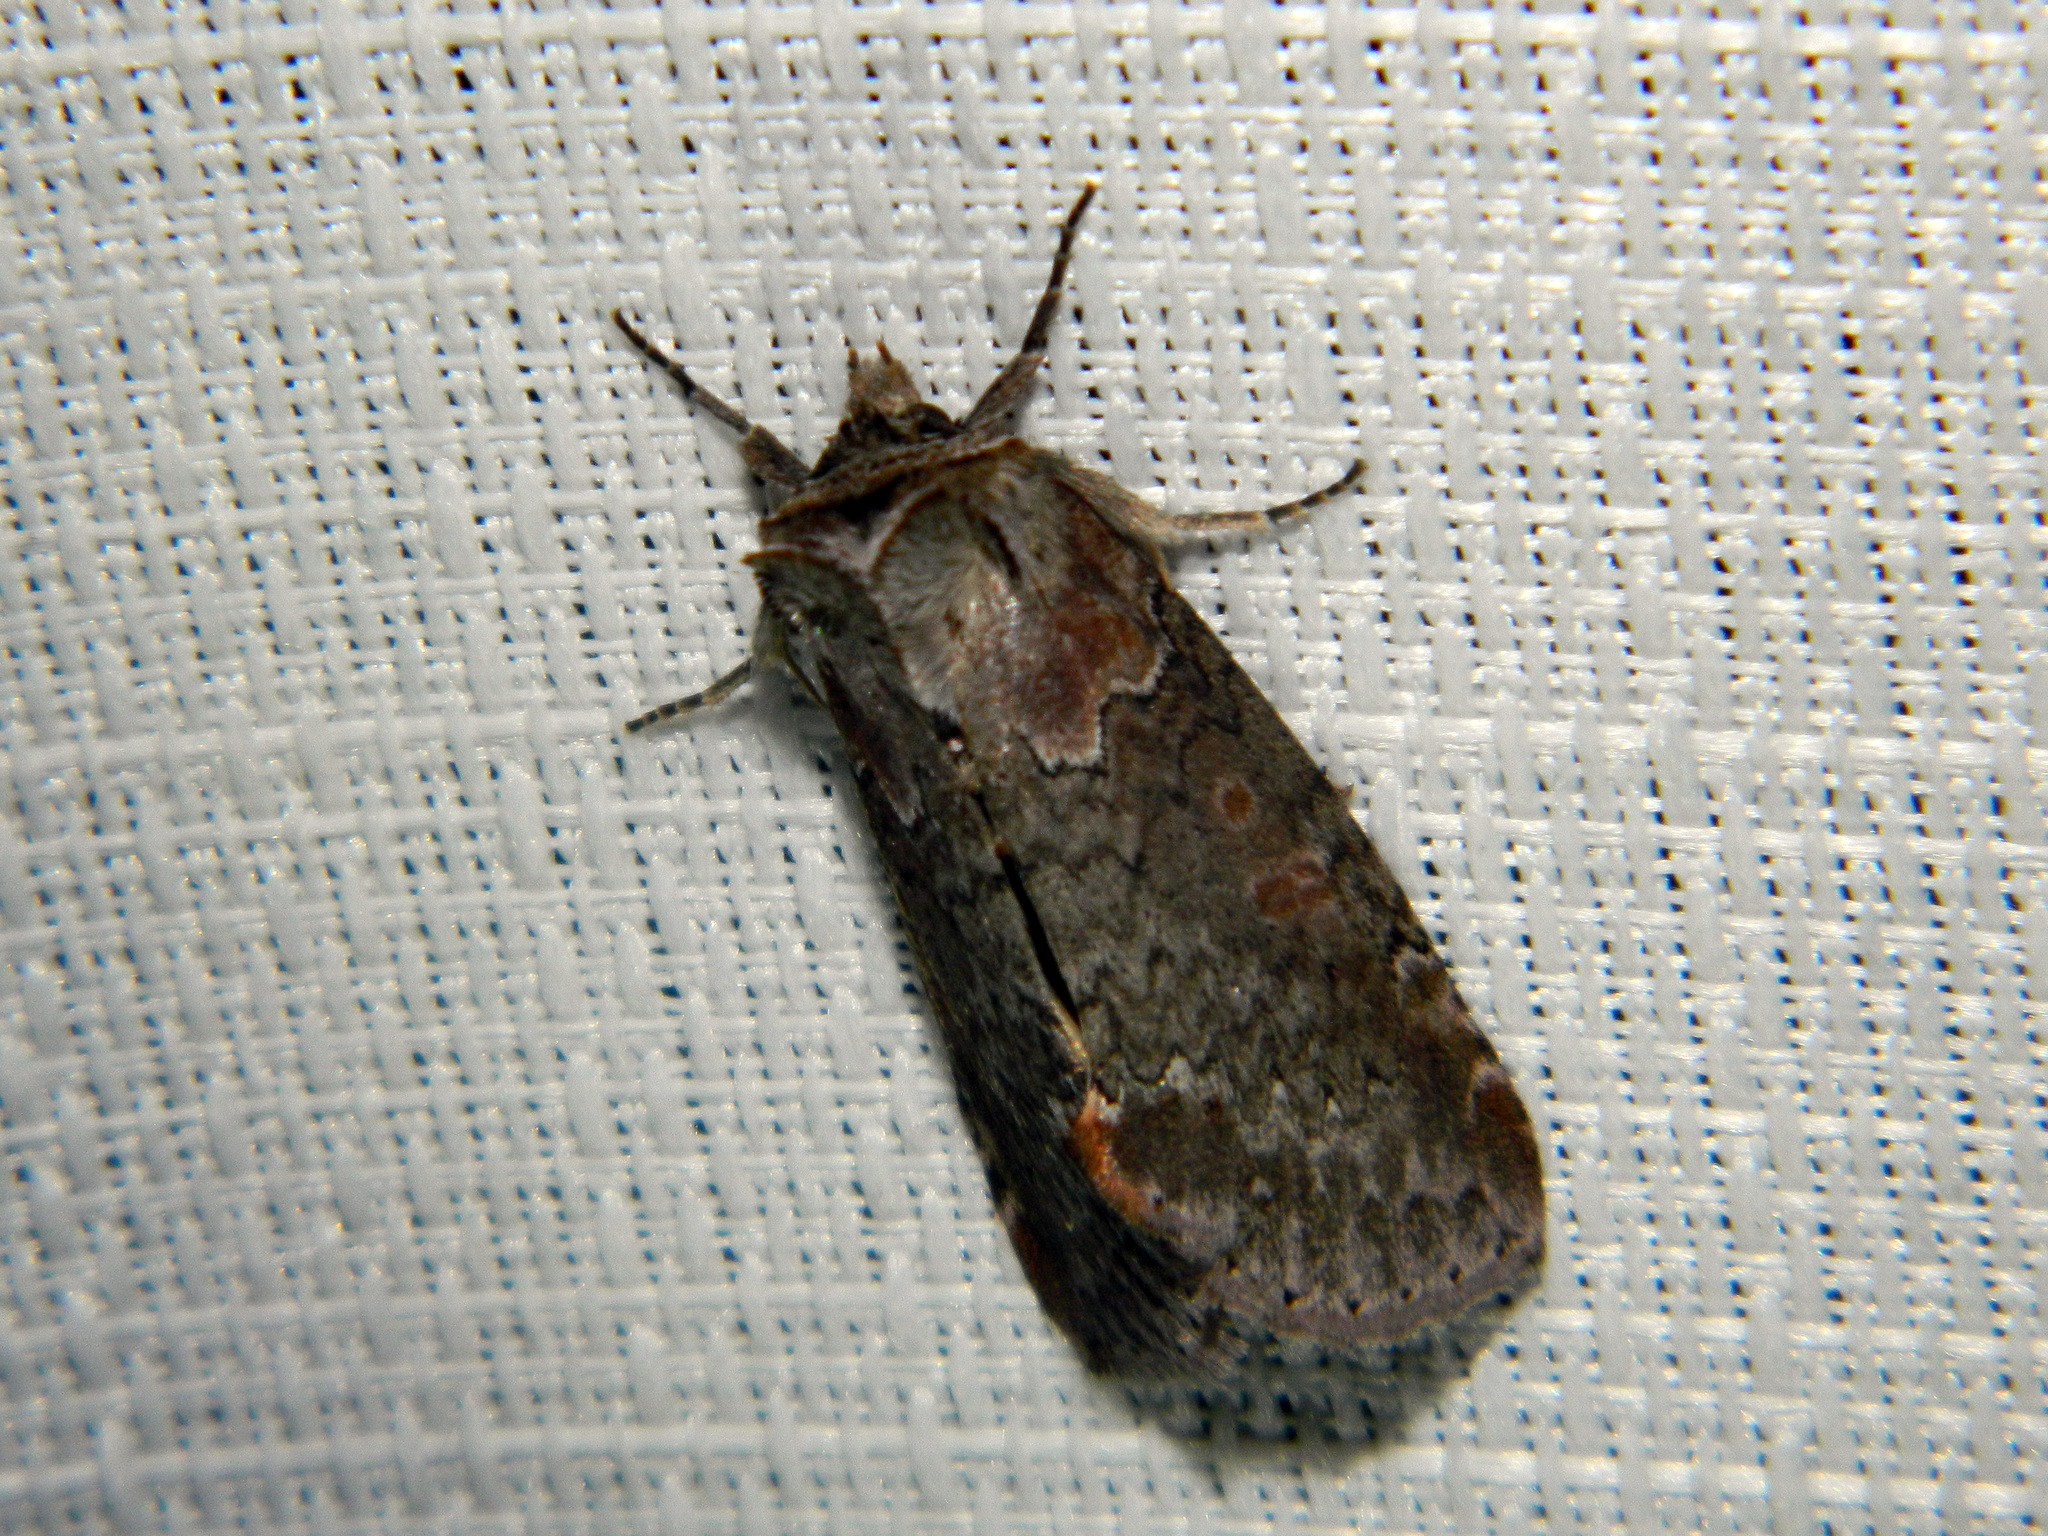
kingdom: Animalia
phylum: Arthropoda
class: Insecta
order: Lepidoptera
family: Drepanidae
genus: Pseudothyatira
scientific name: Pseudothyatira cymatophoroides
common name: Tufted thyatirid moth
